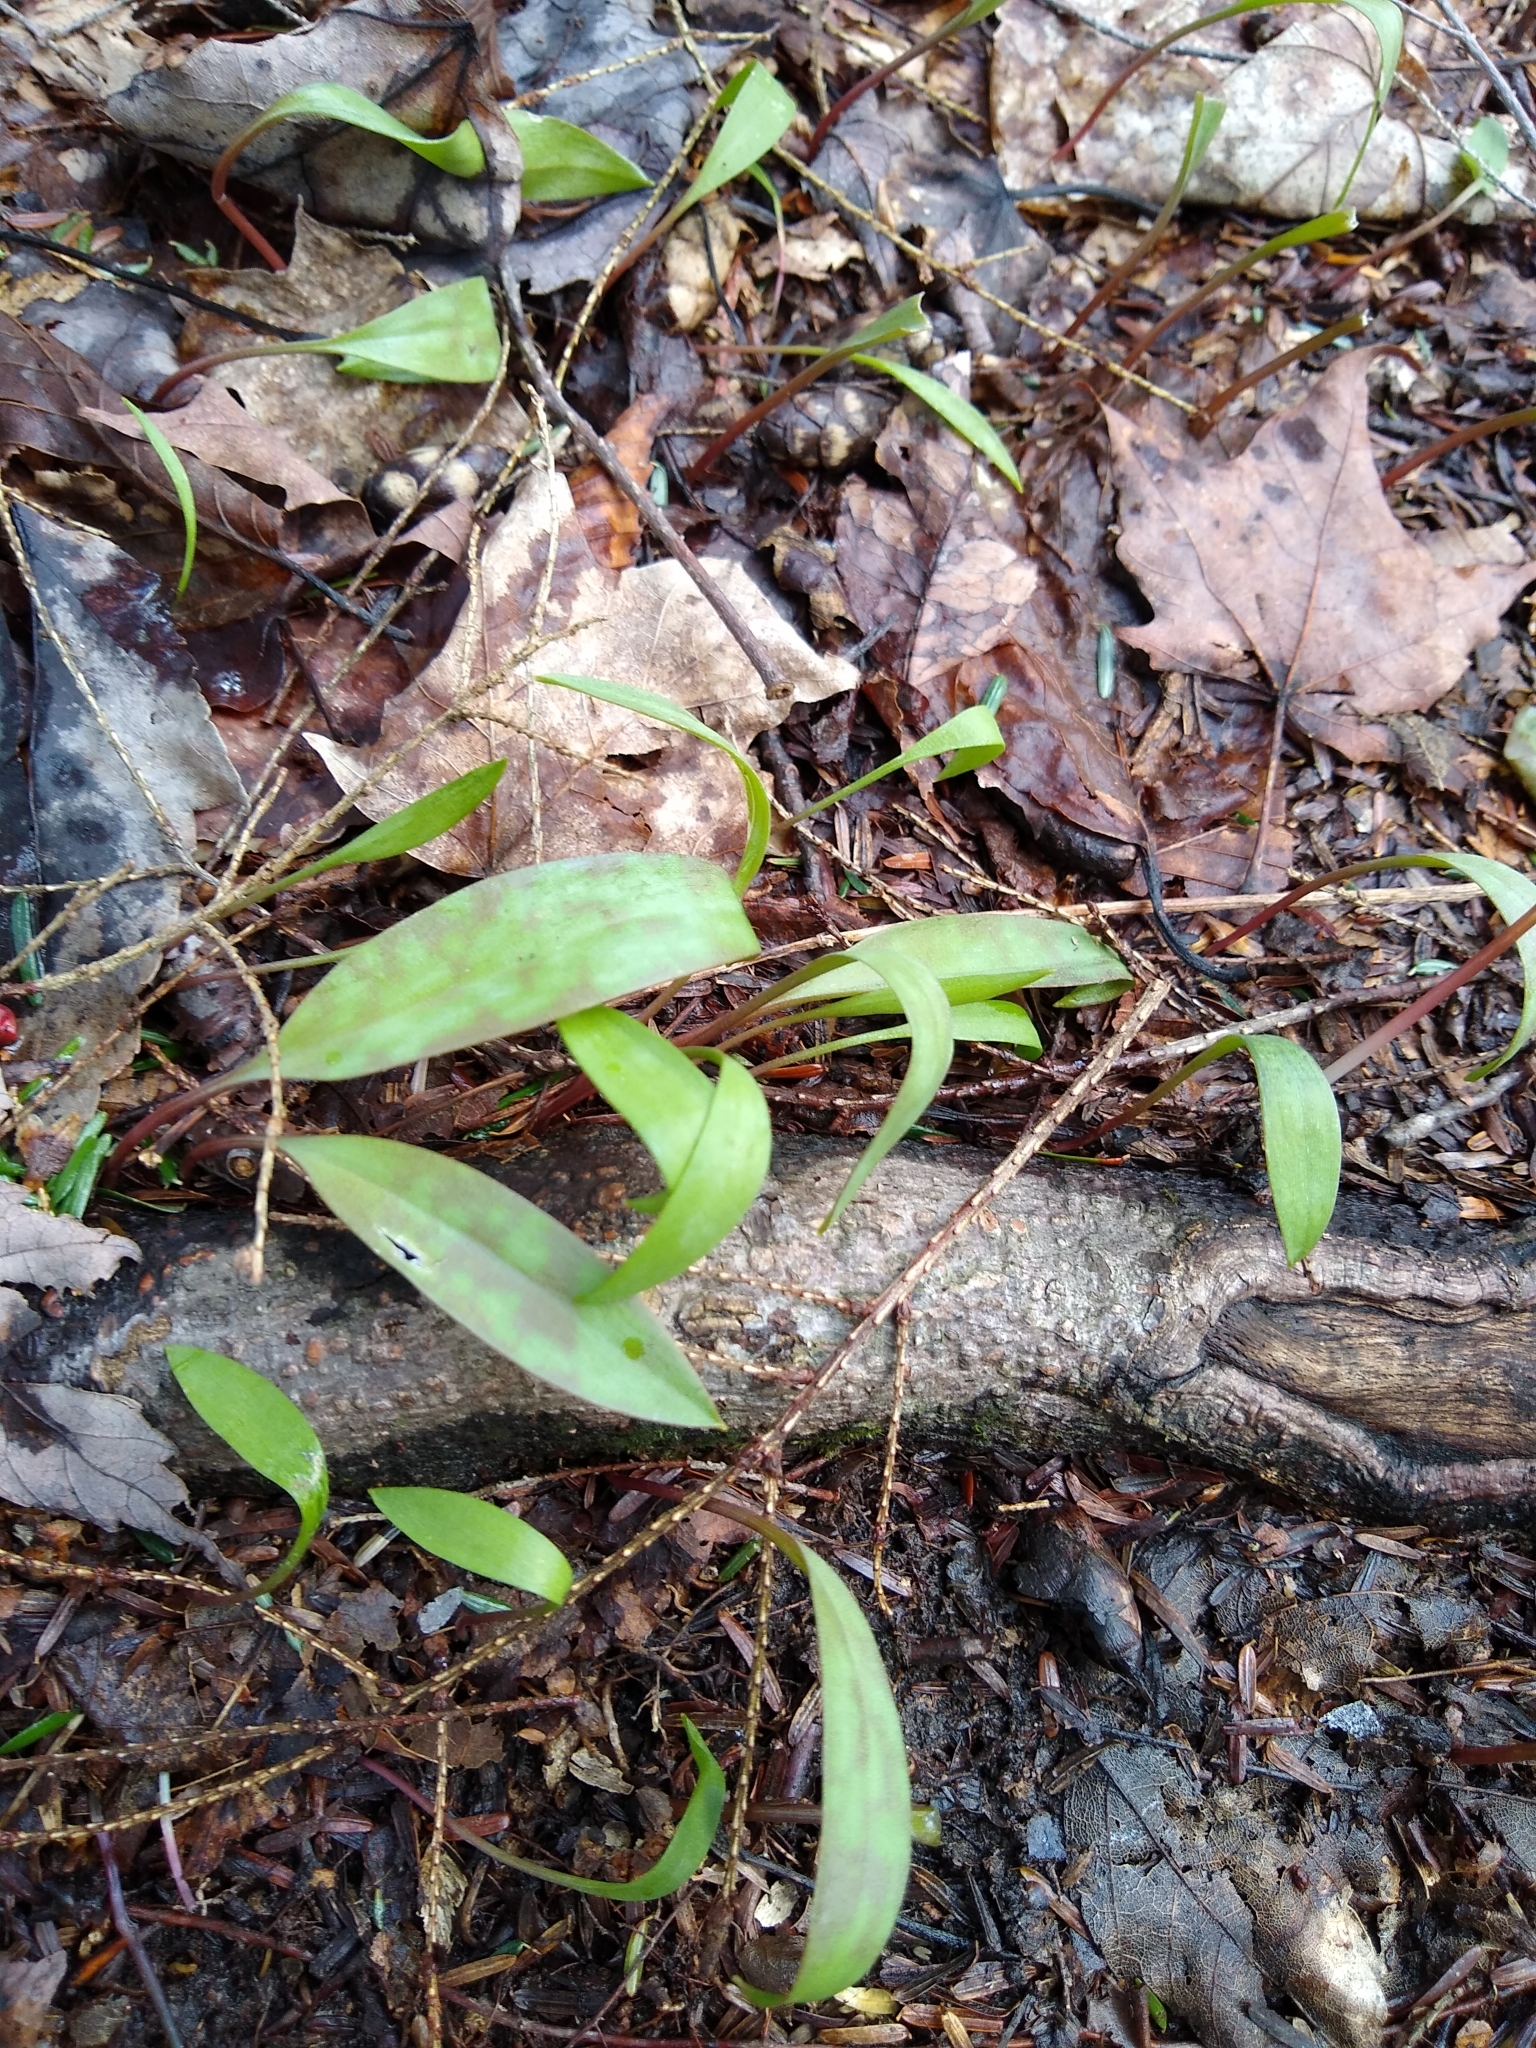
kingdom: Plantae
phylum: Tracheophyta
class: Liliopsida
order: Liliales
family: Liliaceae
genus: Erythronium
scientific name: Erythronium
